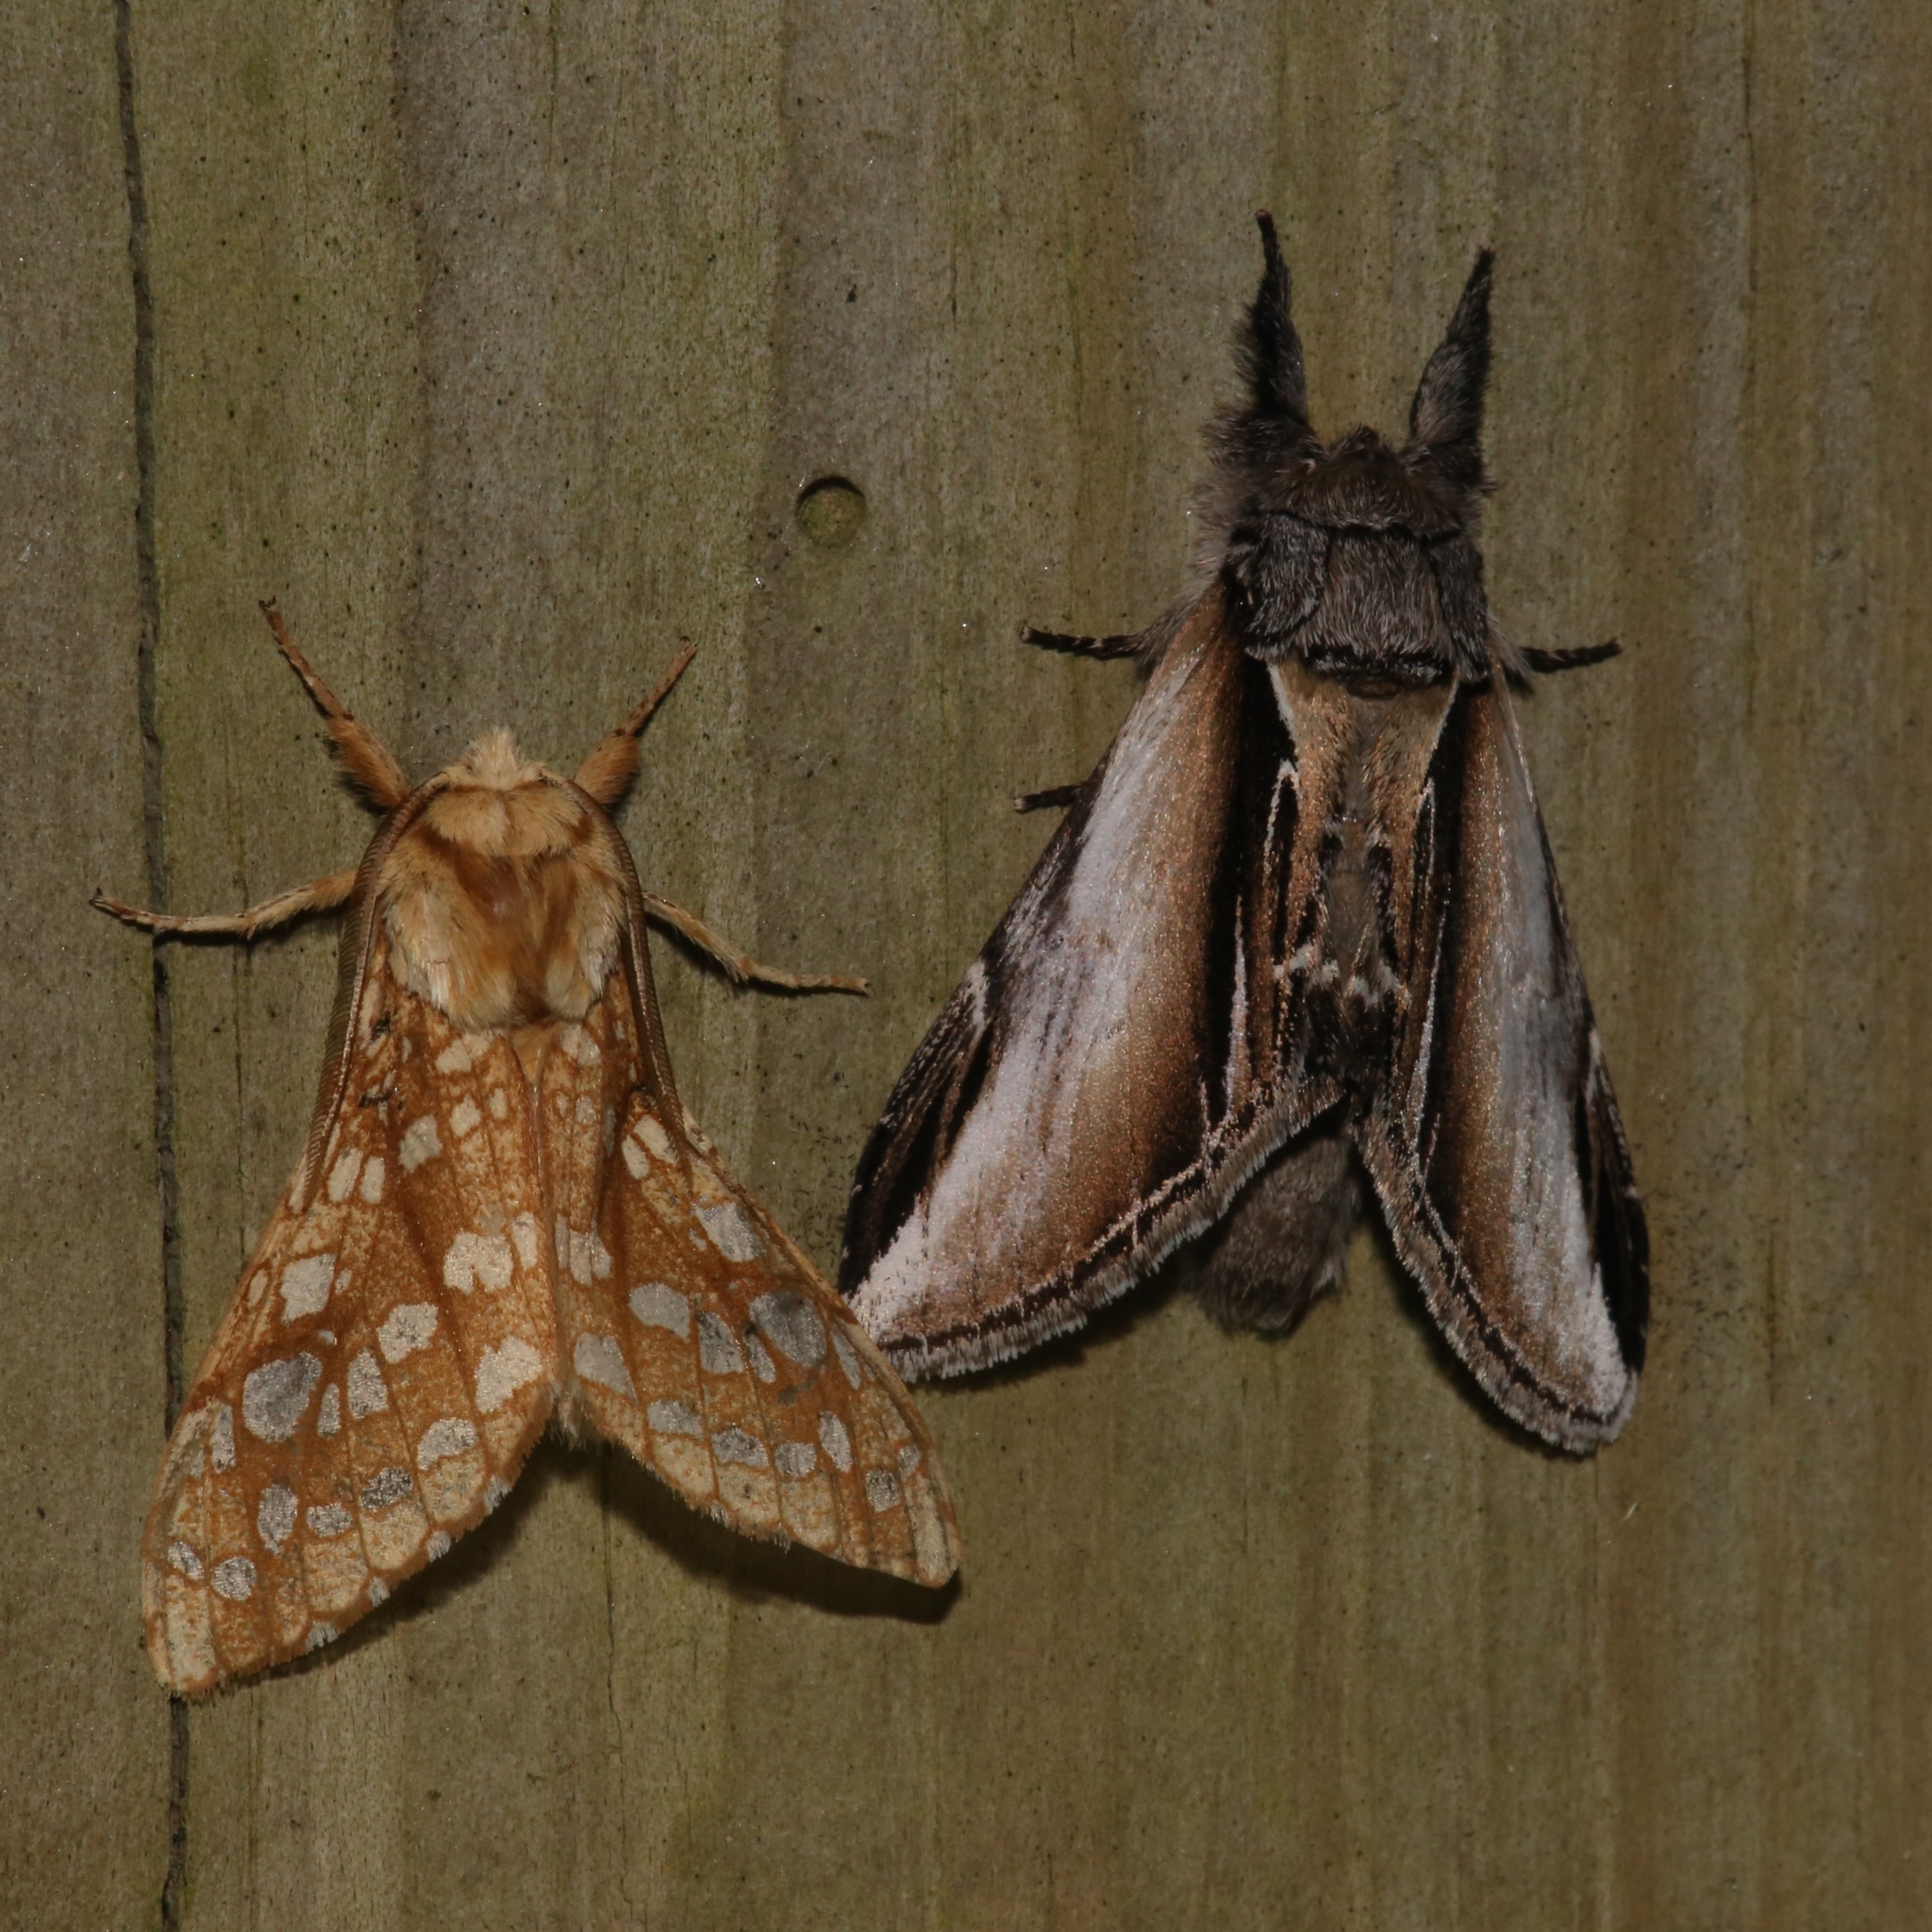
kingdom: Animalia
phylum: Arthropoda
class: Insecta
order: Lepidoptera
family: Notodontidae
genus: Pheosia
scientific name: Pheosia rimosa
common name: Black-rimmed prominent
